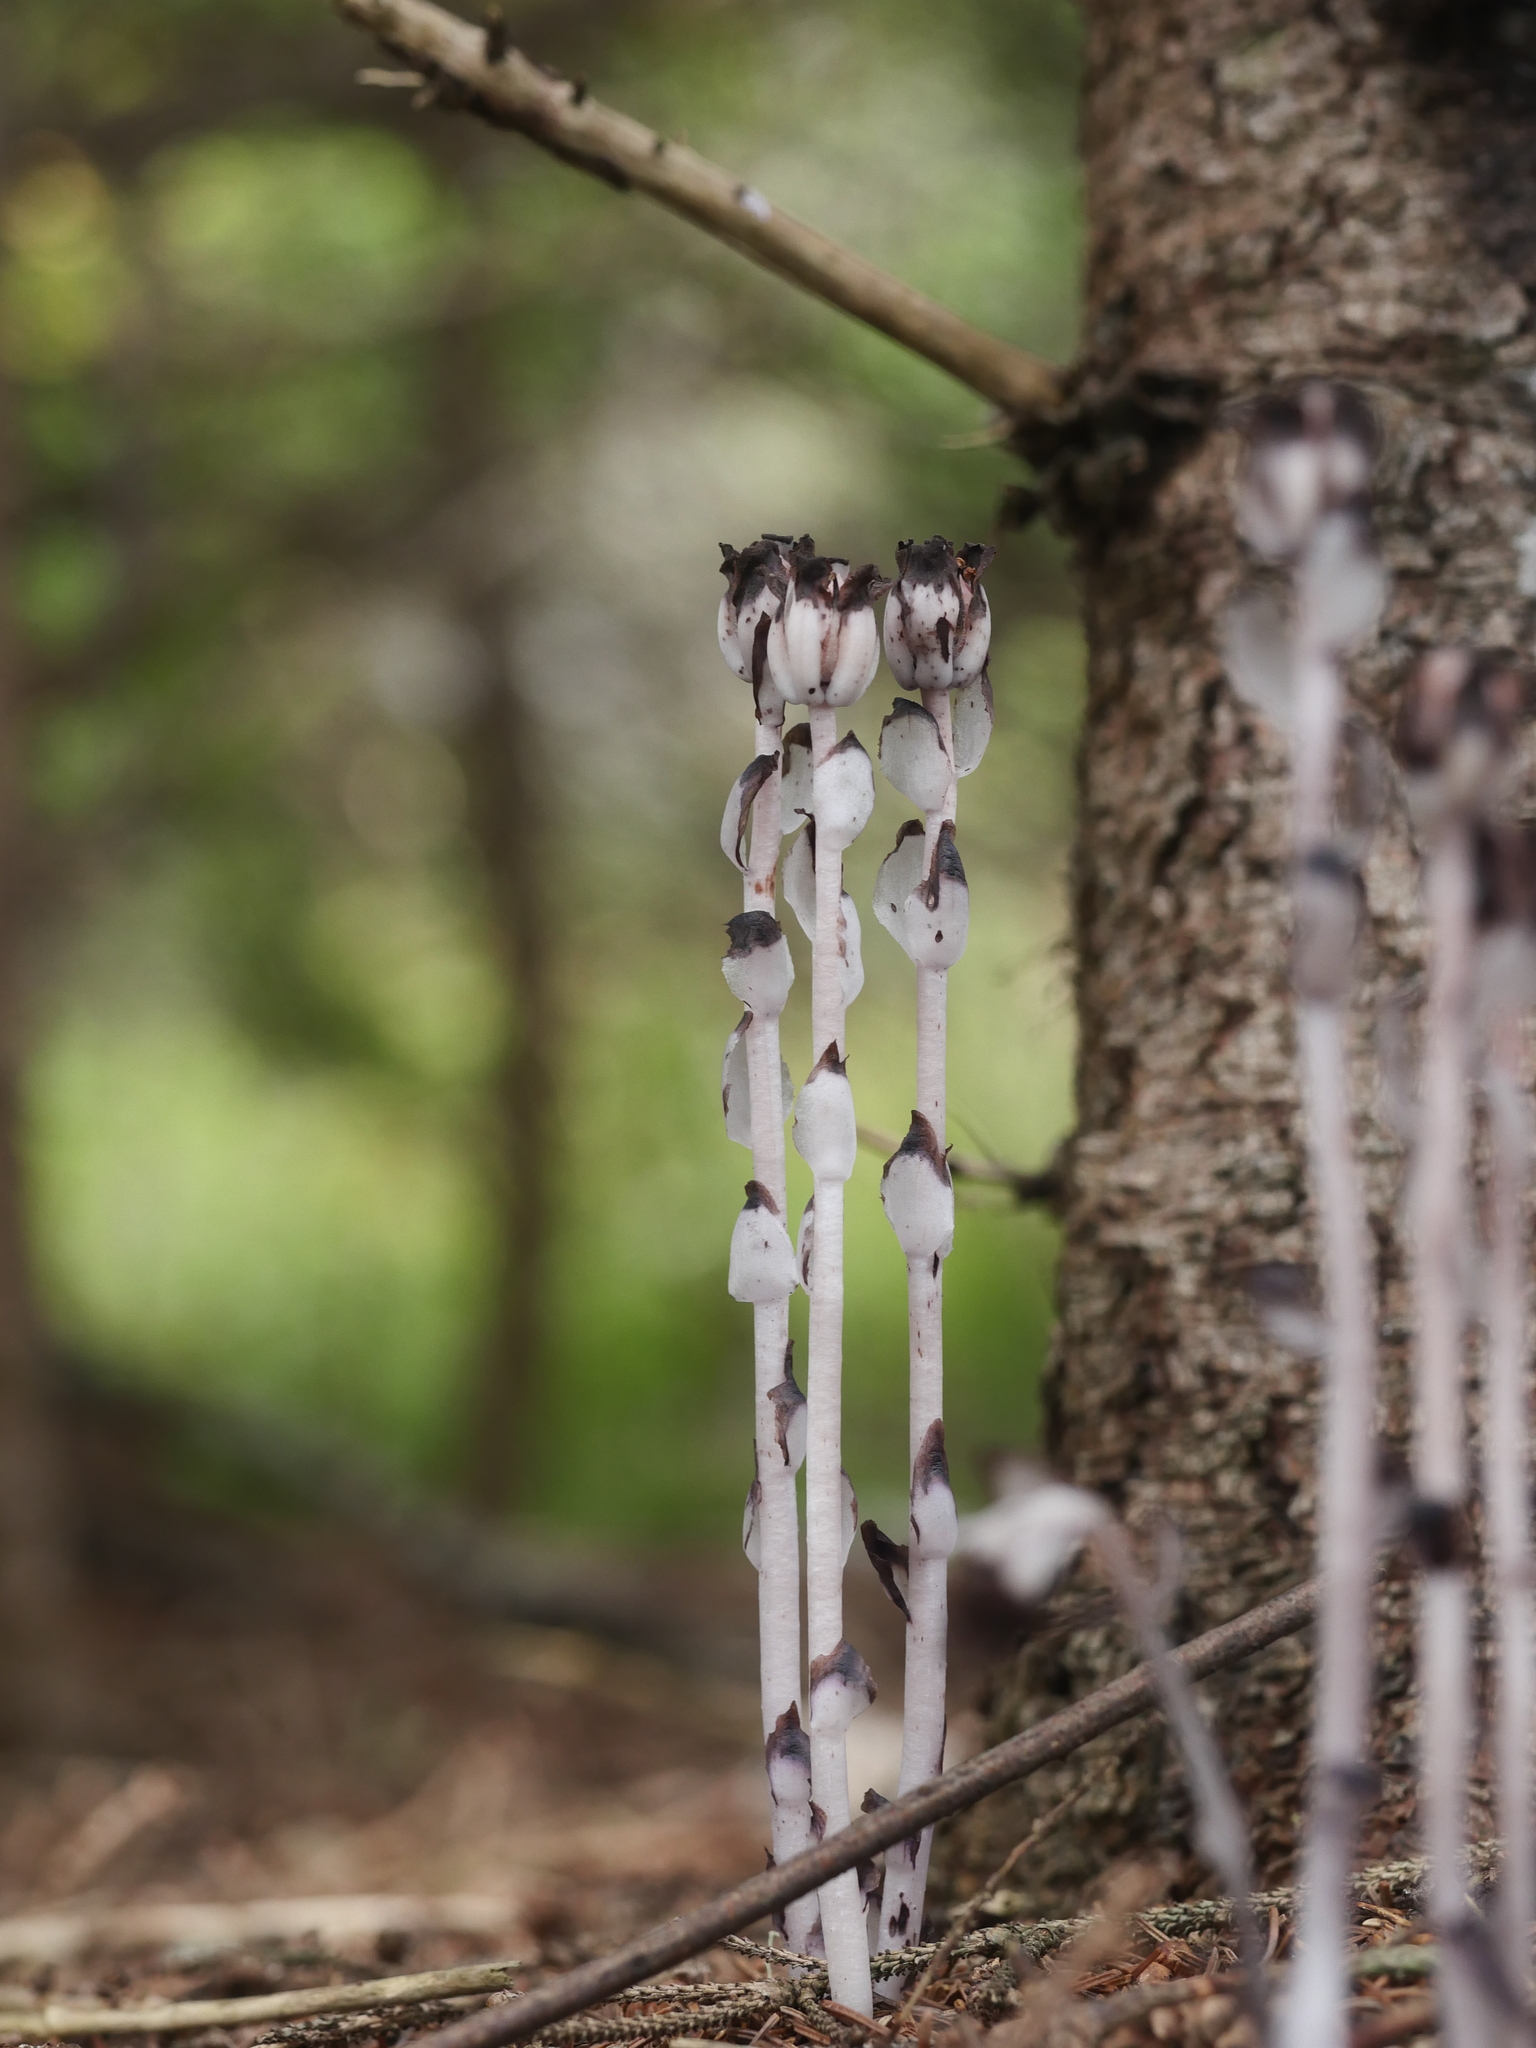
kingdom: Plantae
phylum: Tracheophyta
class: Magnoliopsida
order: Ericales
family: Ericaceae
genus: Monotropa
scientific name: Monotropa uniflora
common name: Convulsion root
